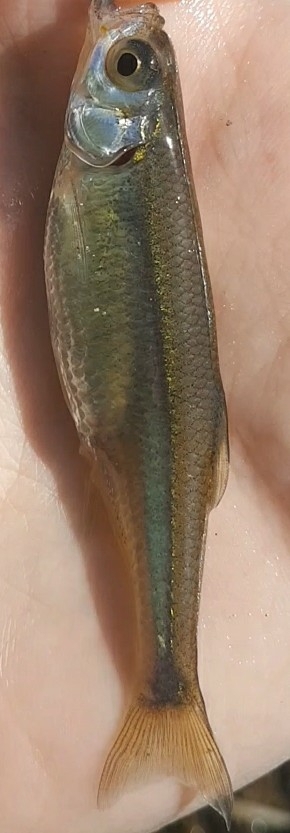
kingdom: Animalia
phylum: Chordata
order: Cypriniformes
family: Cyprinidae
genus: Leucaspius
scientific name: Leucaspius delineatus
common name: Sunbleak
